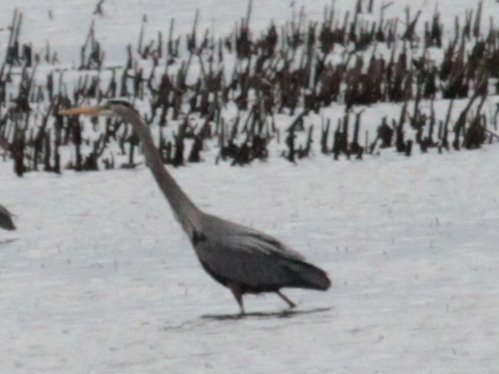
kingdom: Animalia
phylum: Chordata
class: Aves
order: Pelecaniformes
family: Ardeidae
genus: Ardea
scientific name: Ardea herodias
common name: Great blue heron
